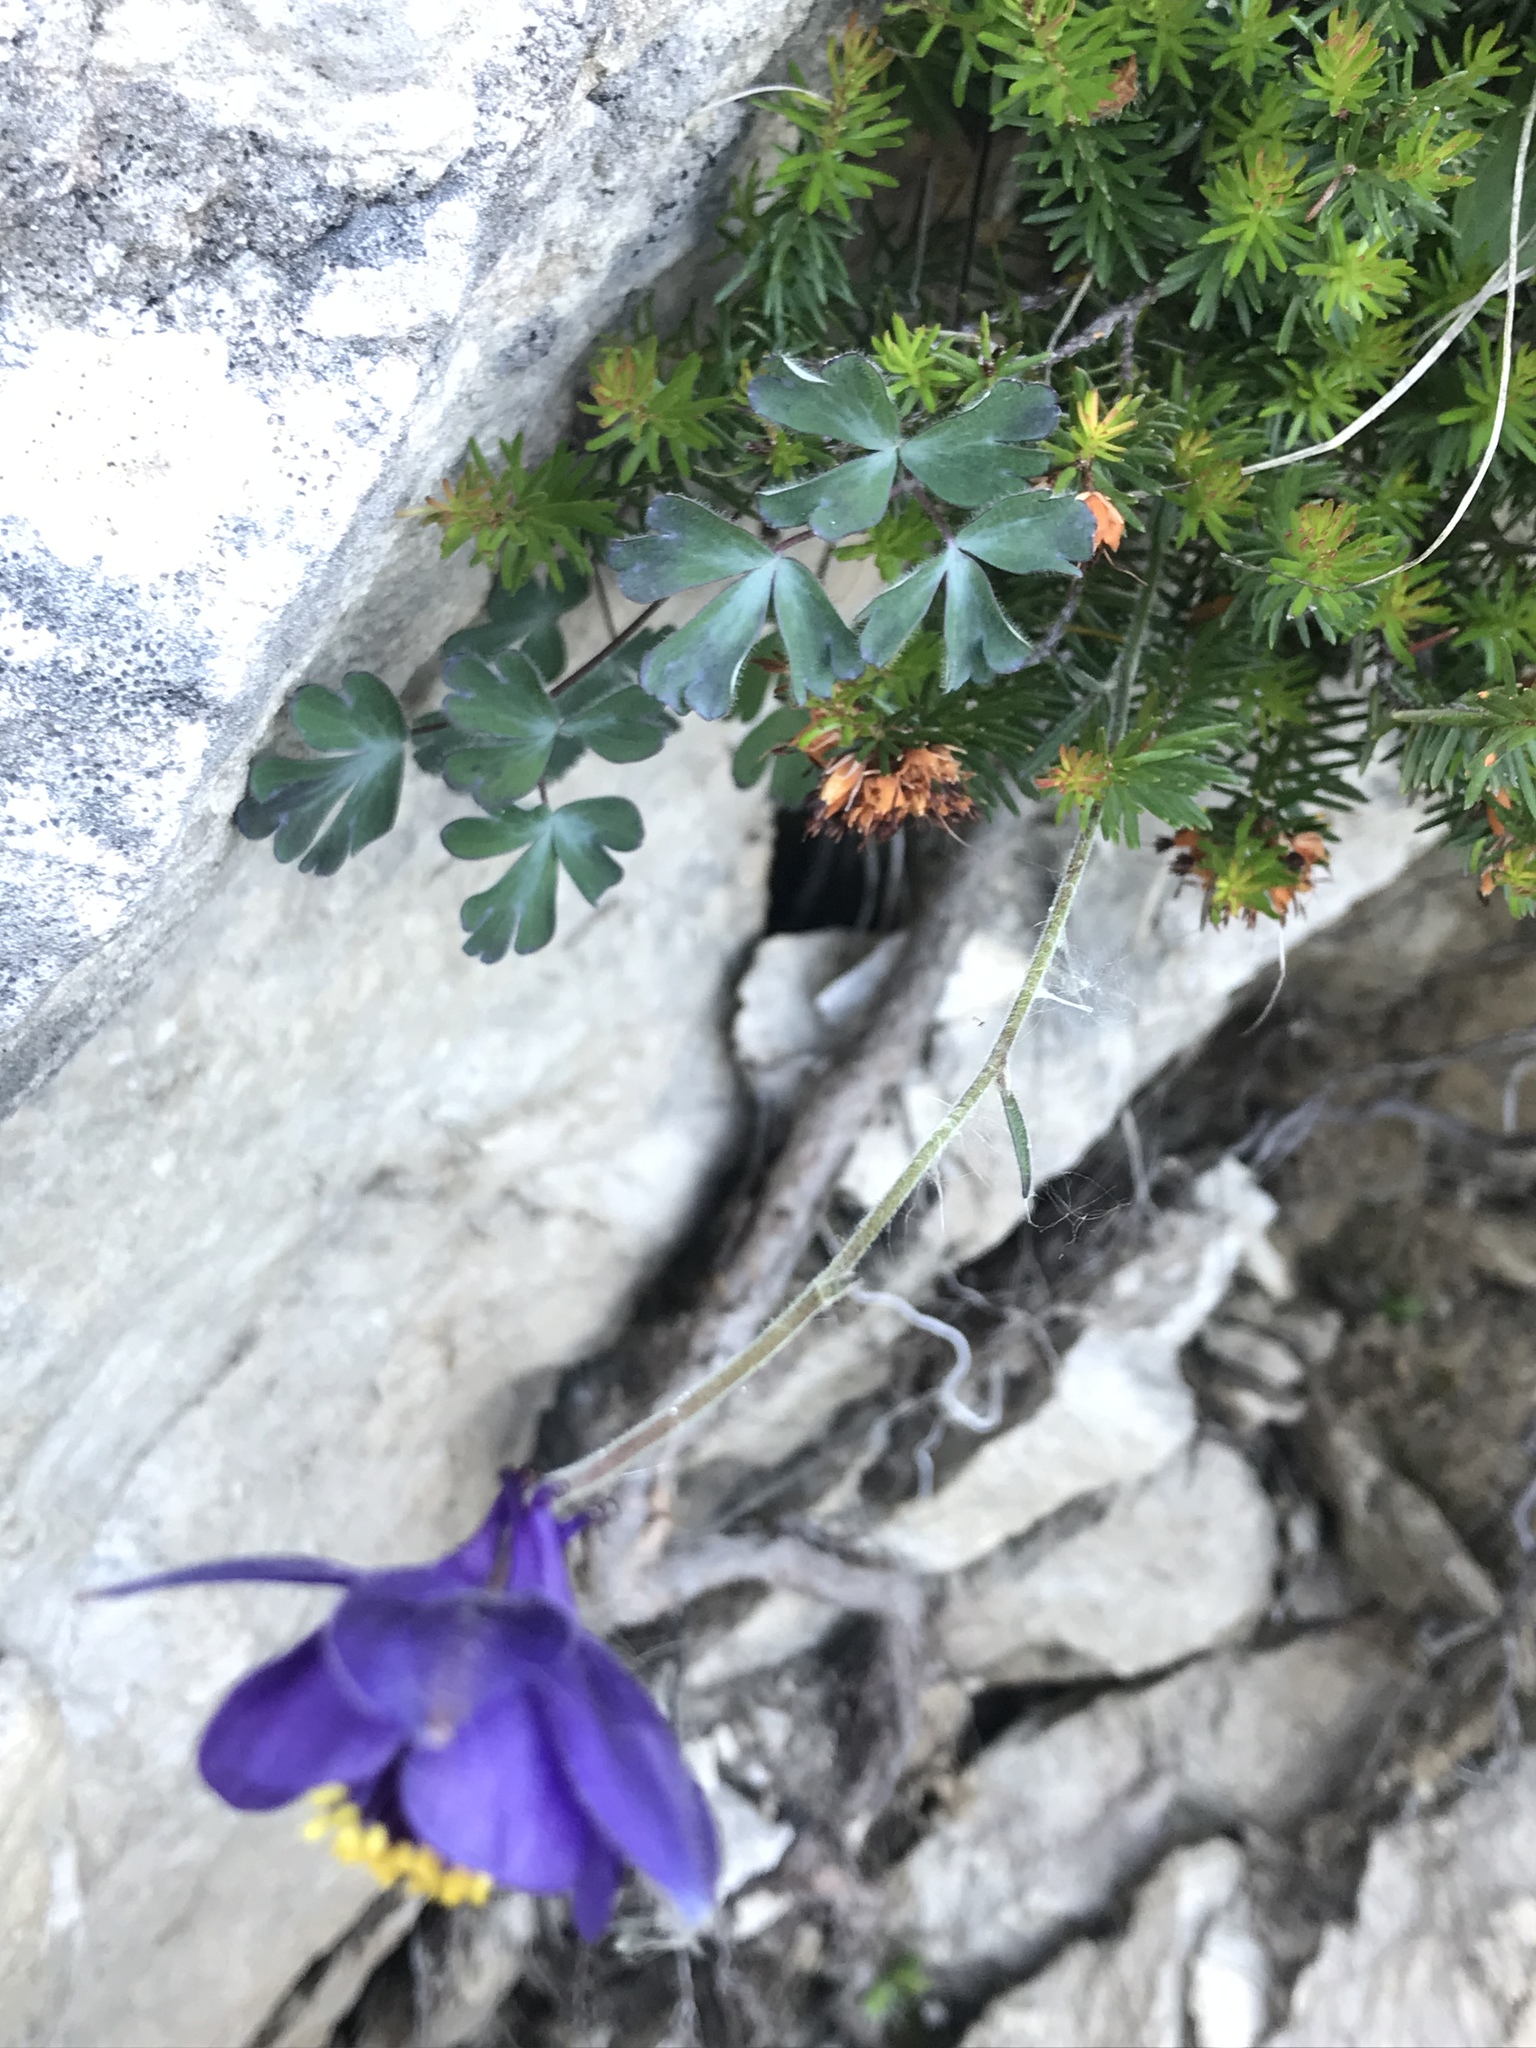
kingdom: Plantae
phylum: Tracheophyta
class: Magnoliopsida
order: Ranunculales
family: Ranunculaceae
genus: Aquilegia
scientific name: Aquilegia einseleana
